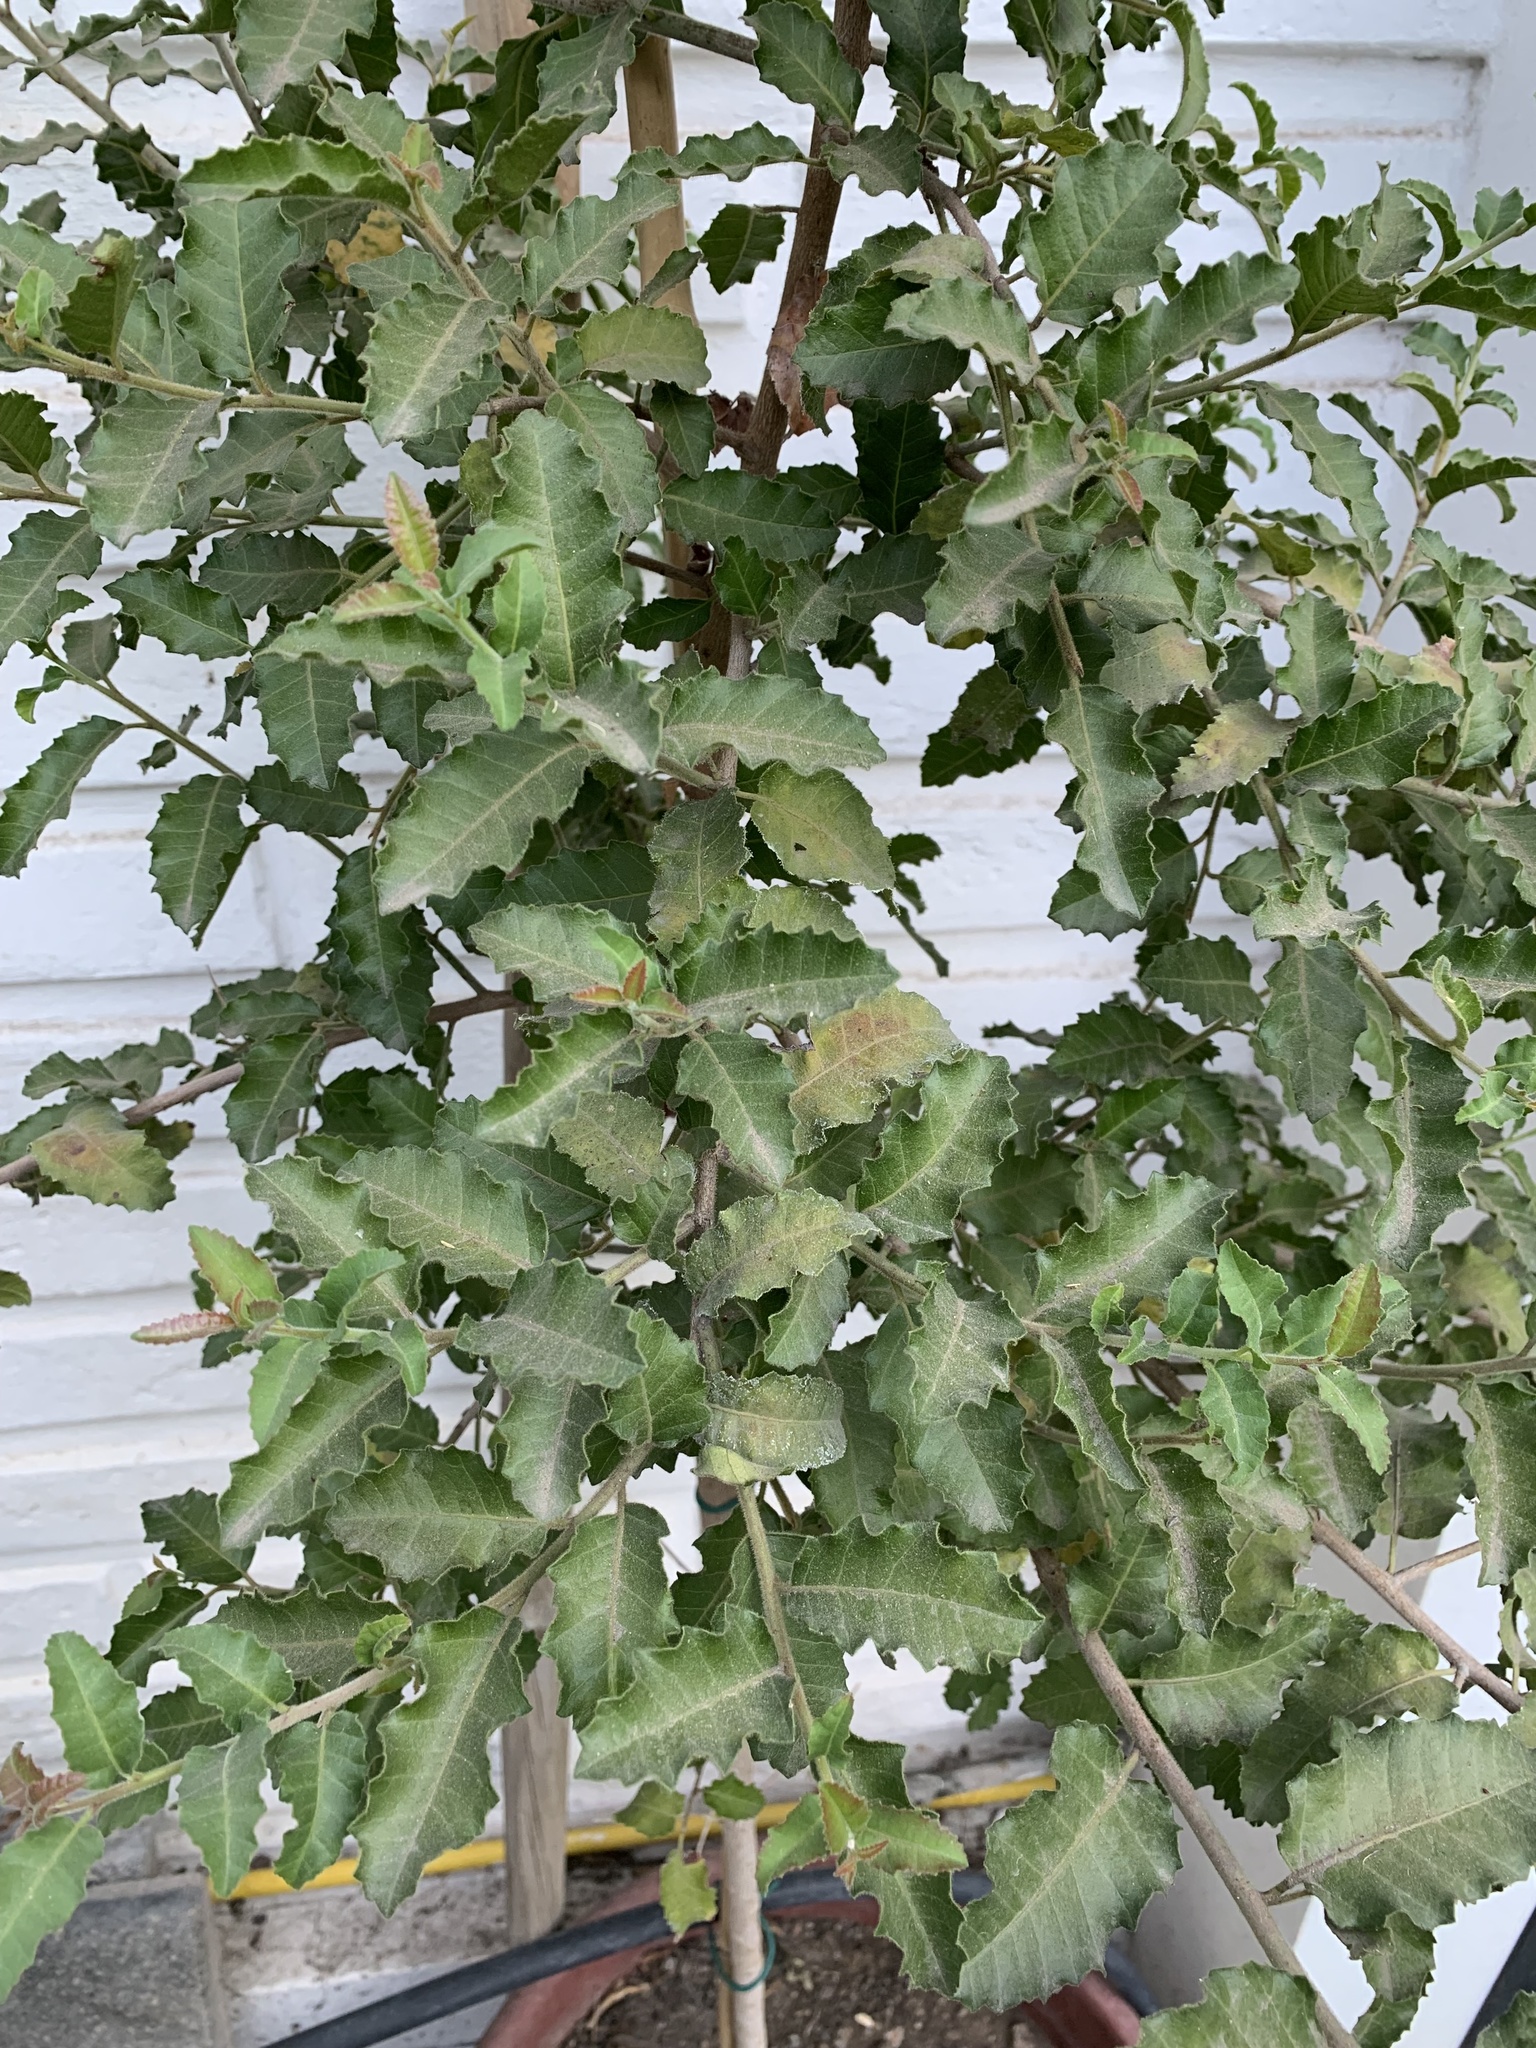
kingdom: Plantae
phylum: Tracheophyta
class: Magnoliopsida
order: Sapindales
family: Anacardiaceae
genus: Schinus
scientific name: Schinus latifolia
